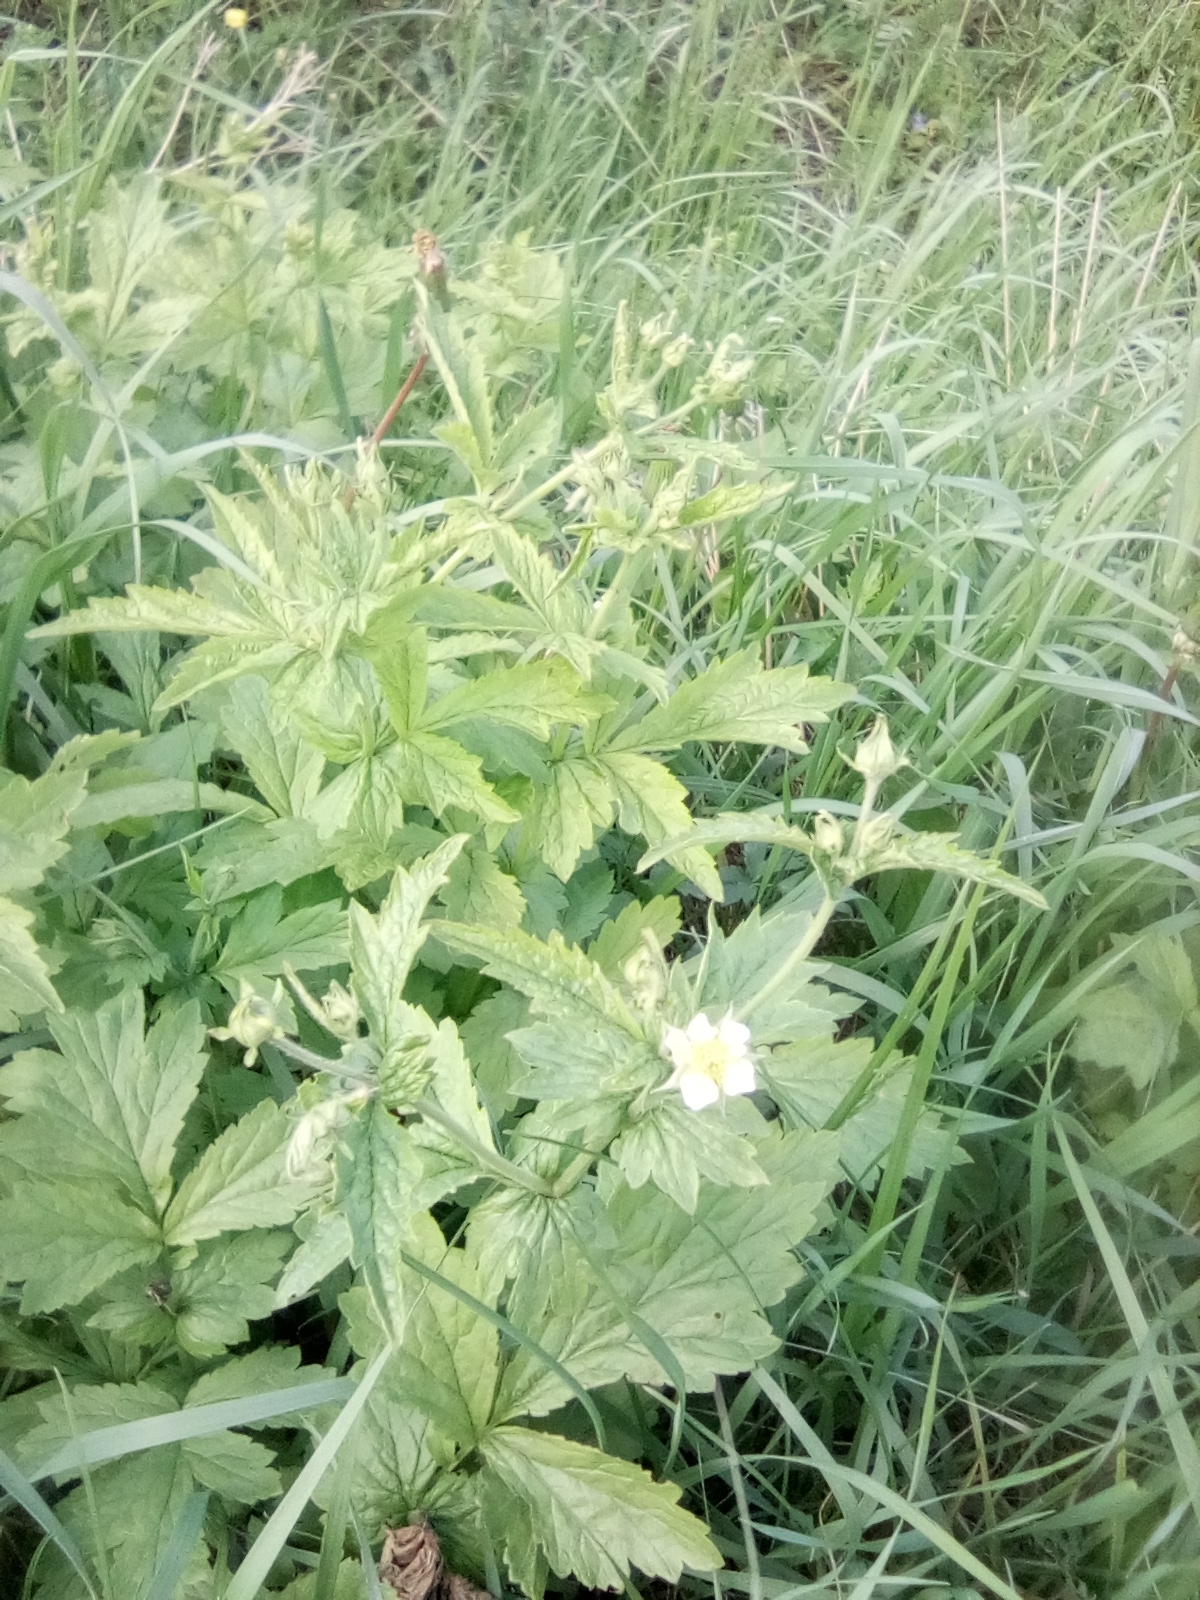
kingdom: Plantae
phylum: Tracheophyta
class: Magnoliopsida
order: Rosales
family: Rosaceae
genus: Geum
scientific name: Geum urbanum
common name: Wood avens
